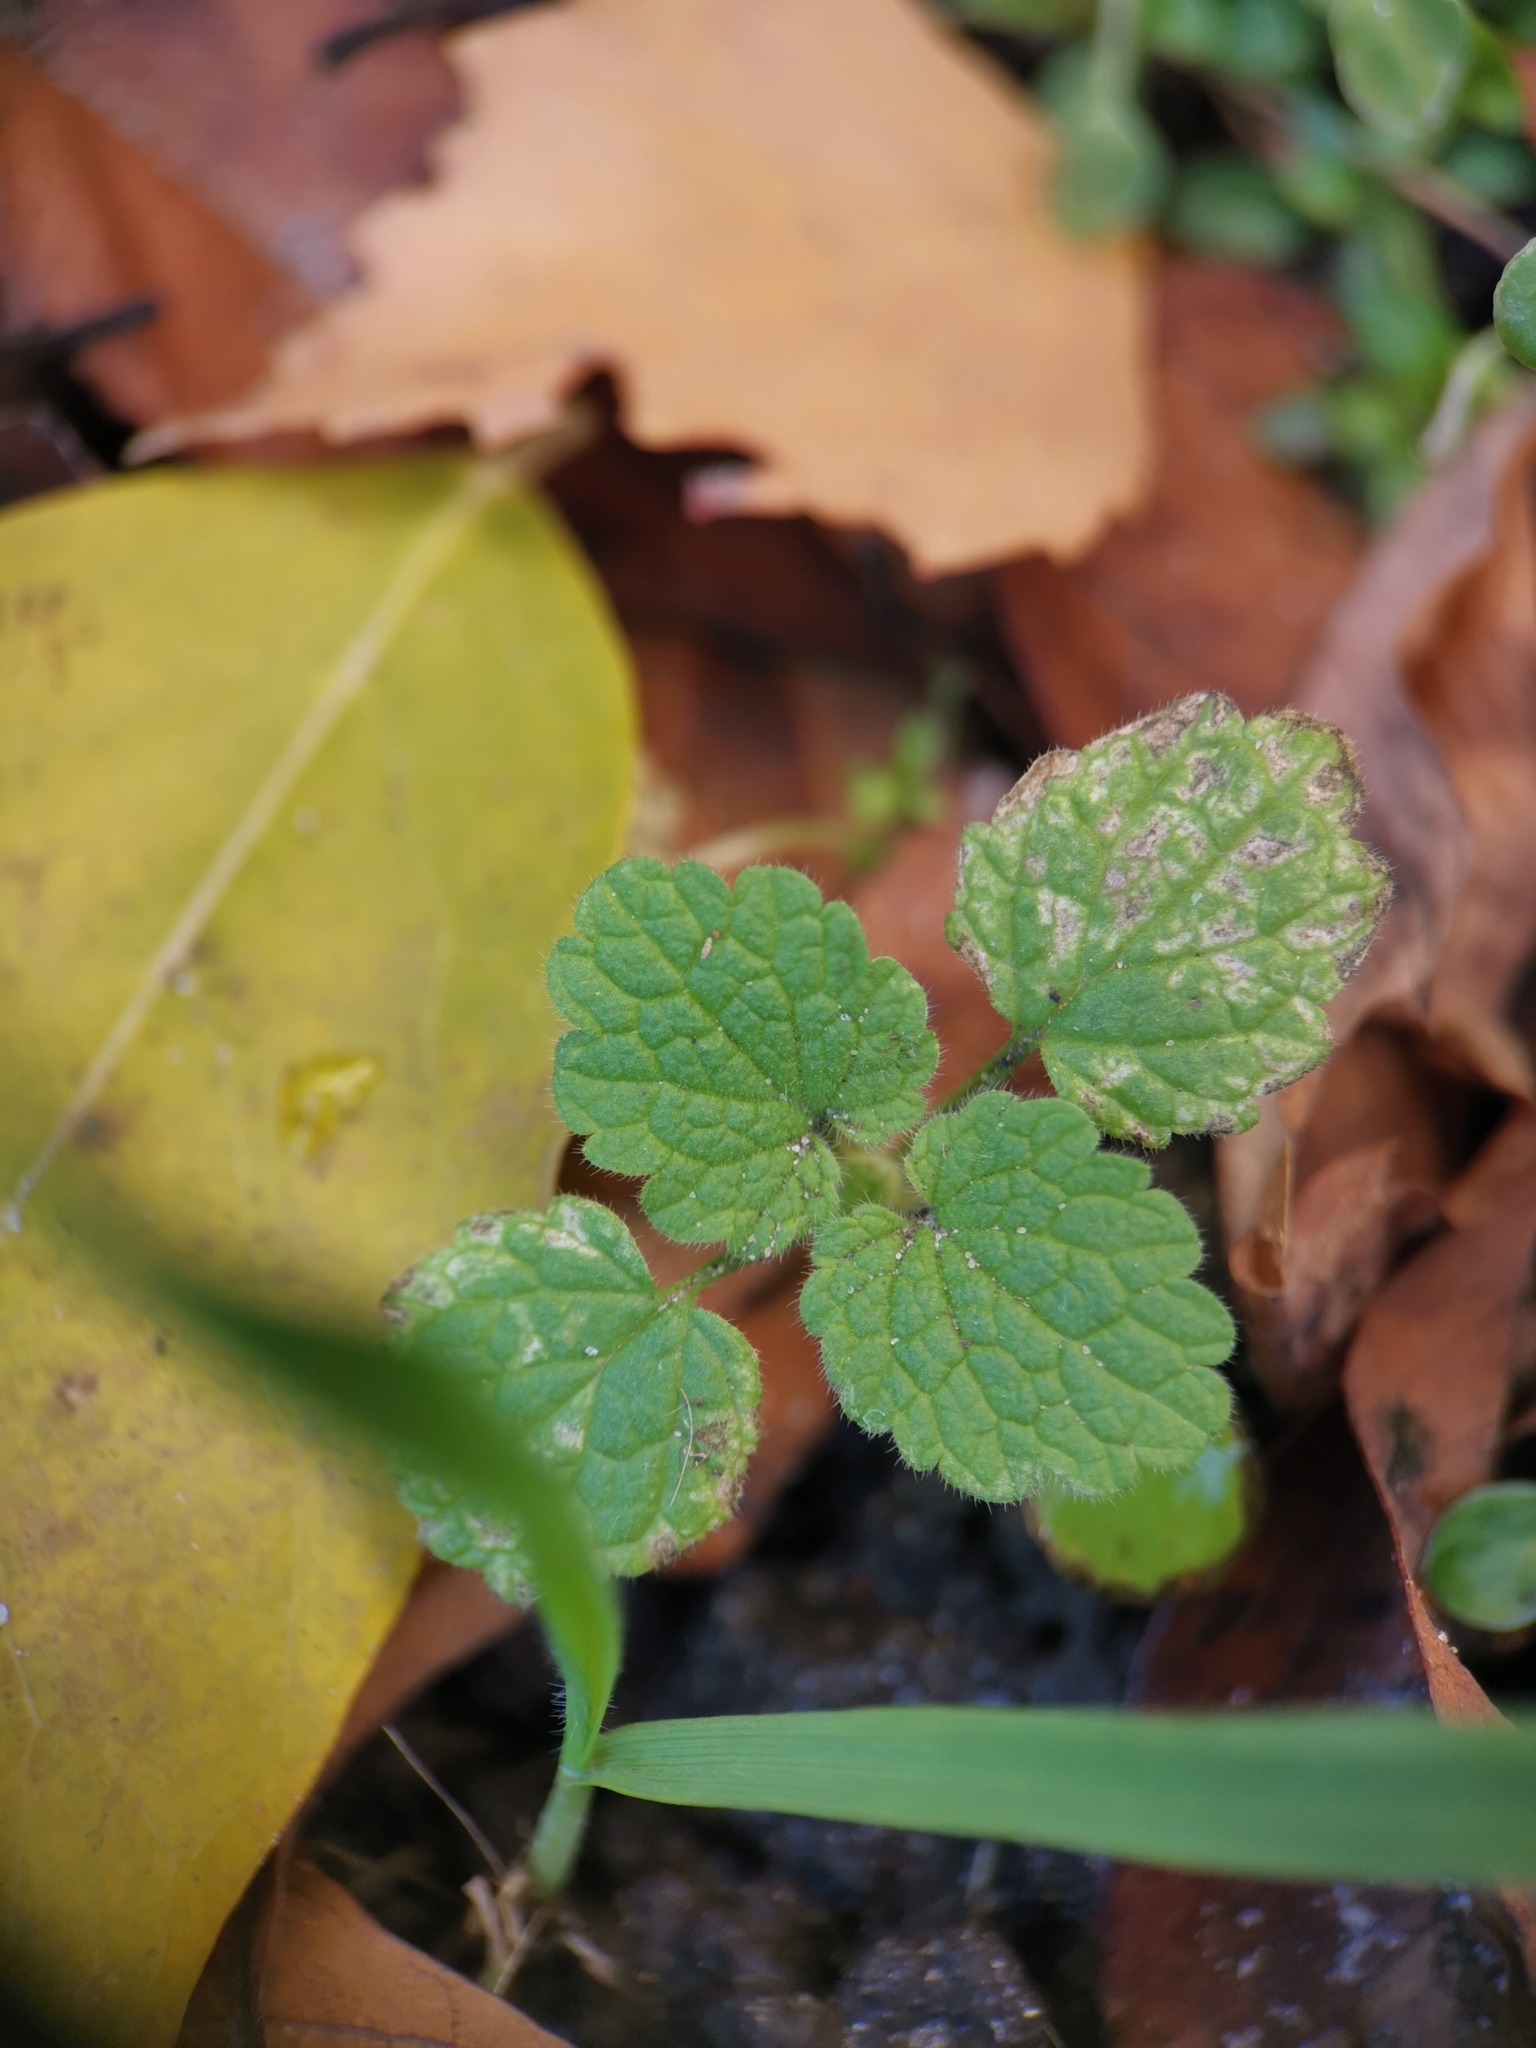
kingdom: Plantae
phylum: Tracheophyta
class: Magnoliopsida
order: Lamiales
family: Lamiaceae
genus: Lamium
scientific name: Lamium purpureum
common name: Red dead-nettle
